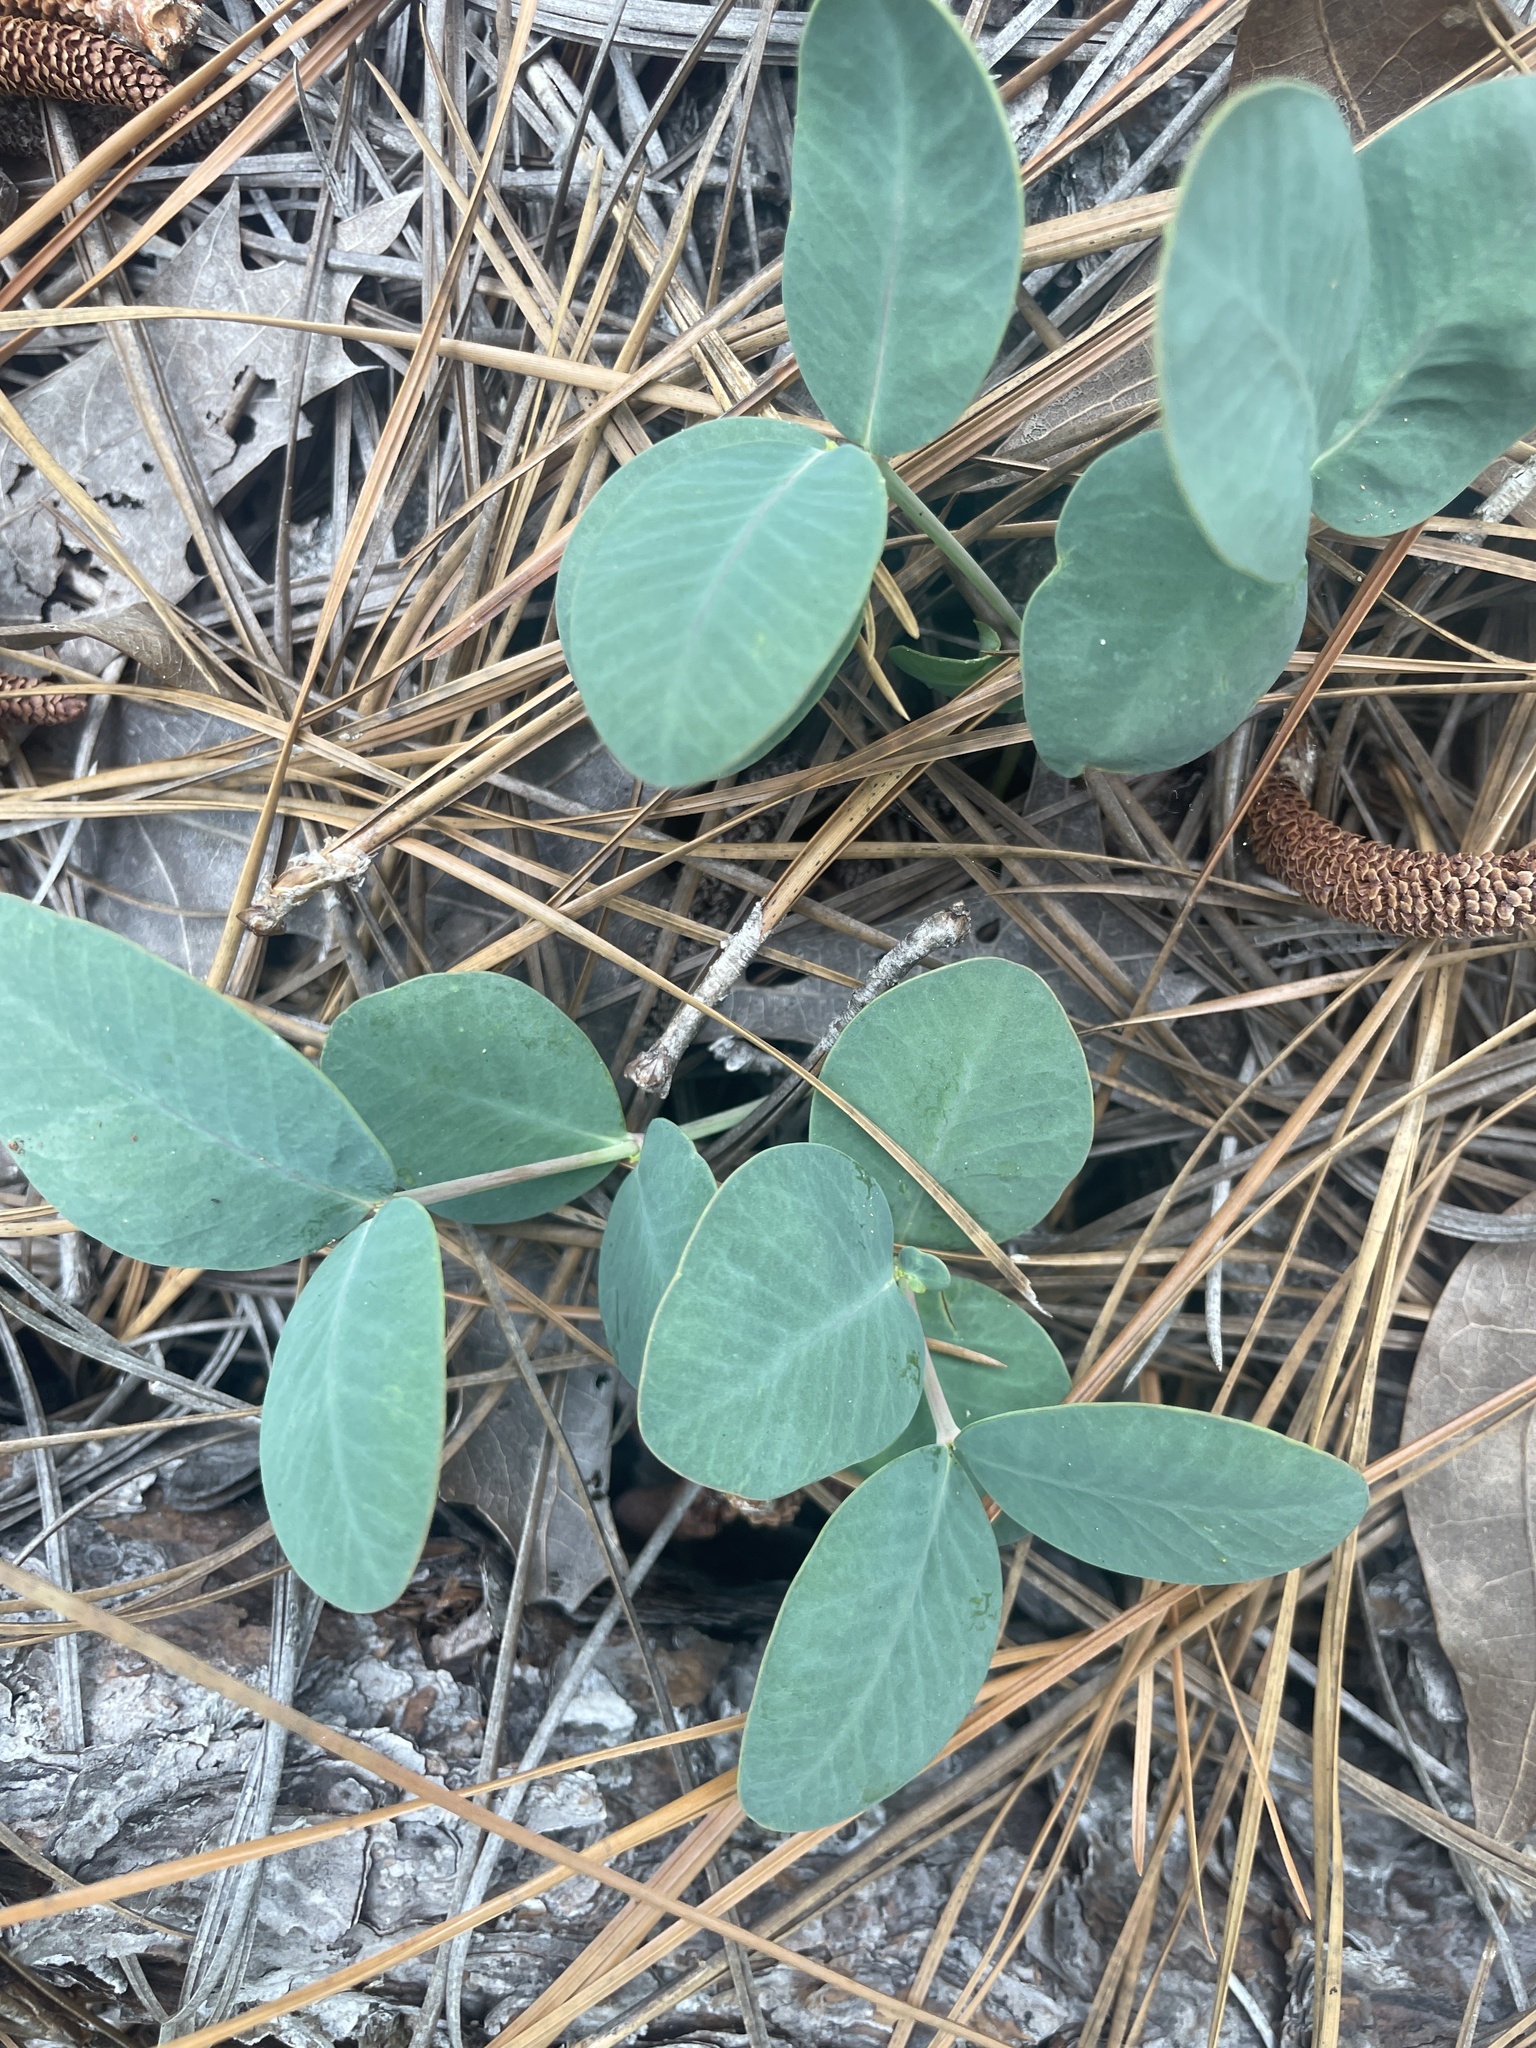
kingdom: Plantae
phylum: Tracheophyta
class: Magnoliopsida
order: Malpighiales
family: Euphorbiaceae
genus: Euphorbia
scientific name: Euphorbia ipecacuanhae
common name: Carolina ipecac
